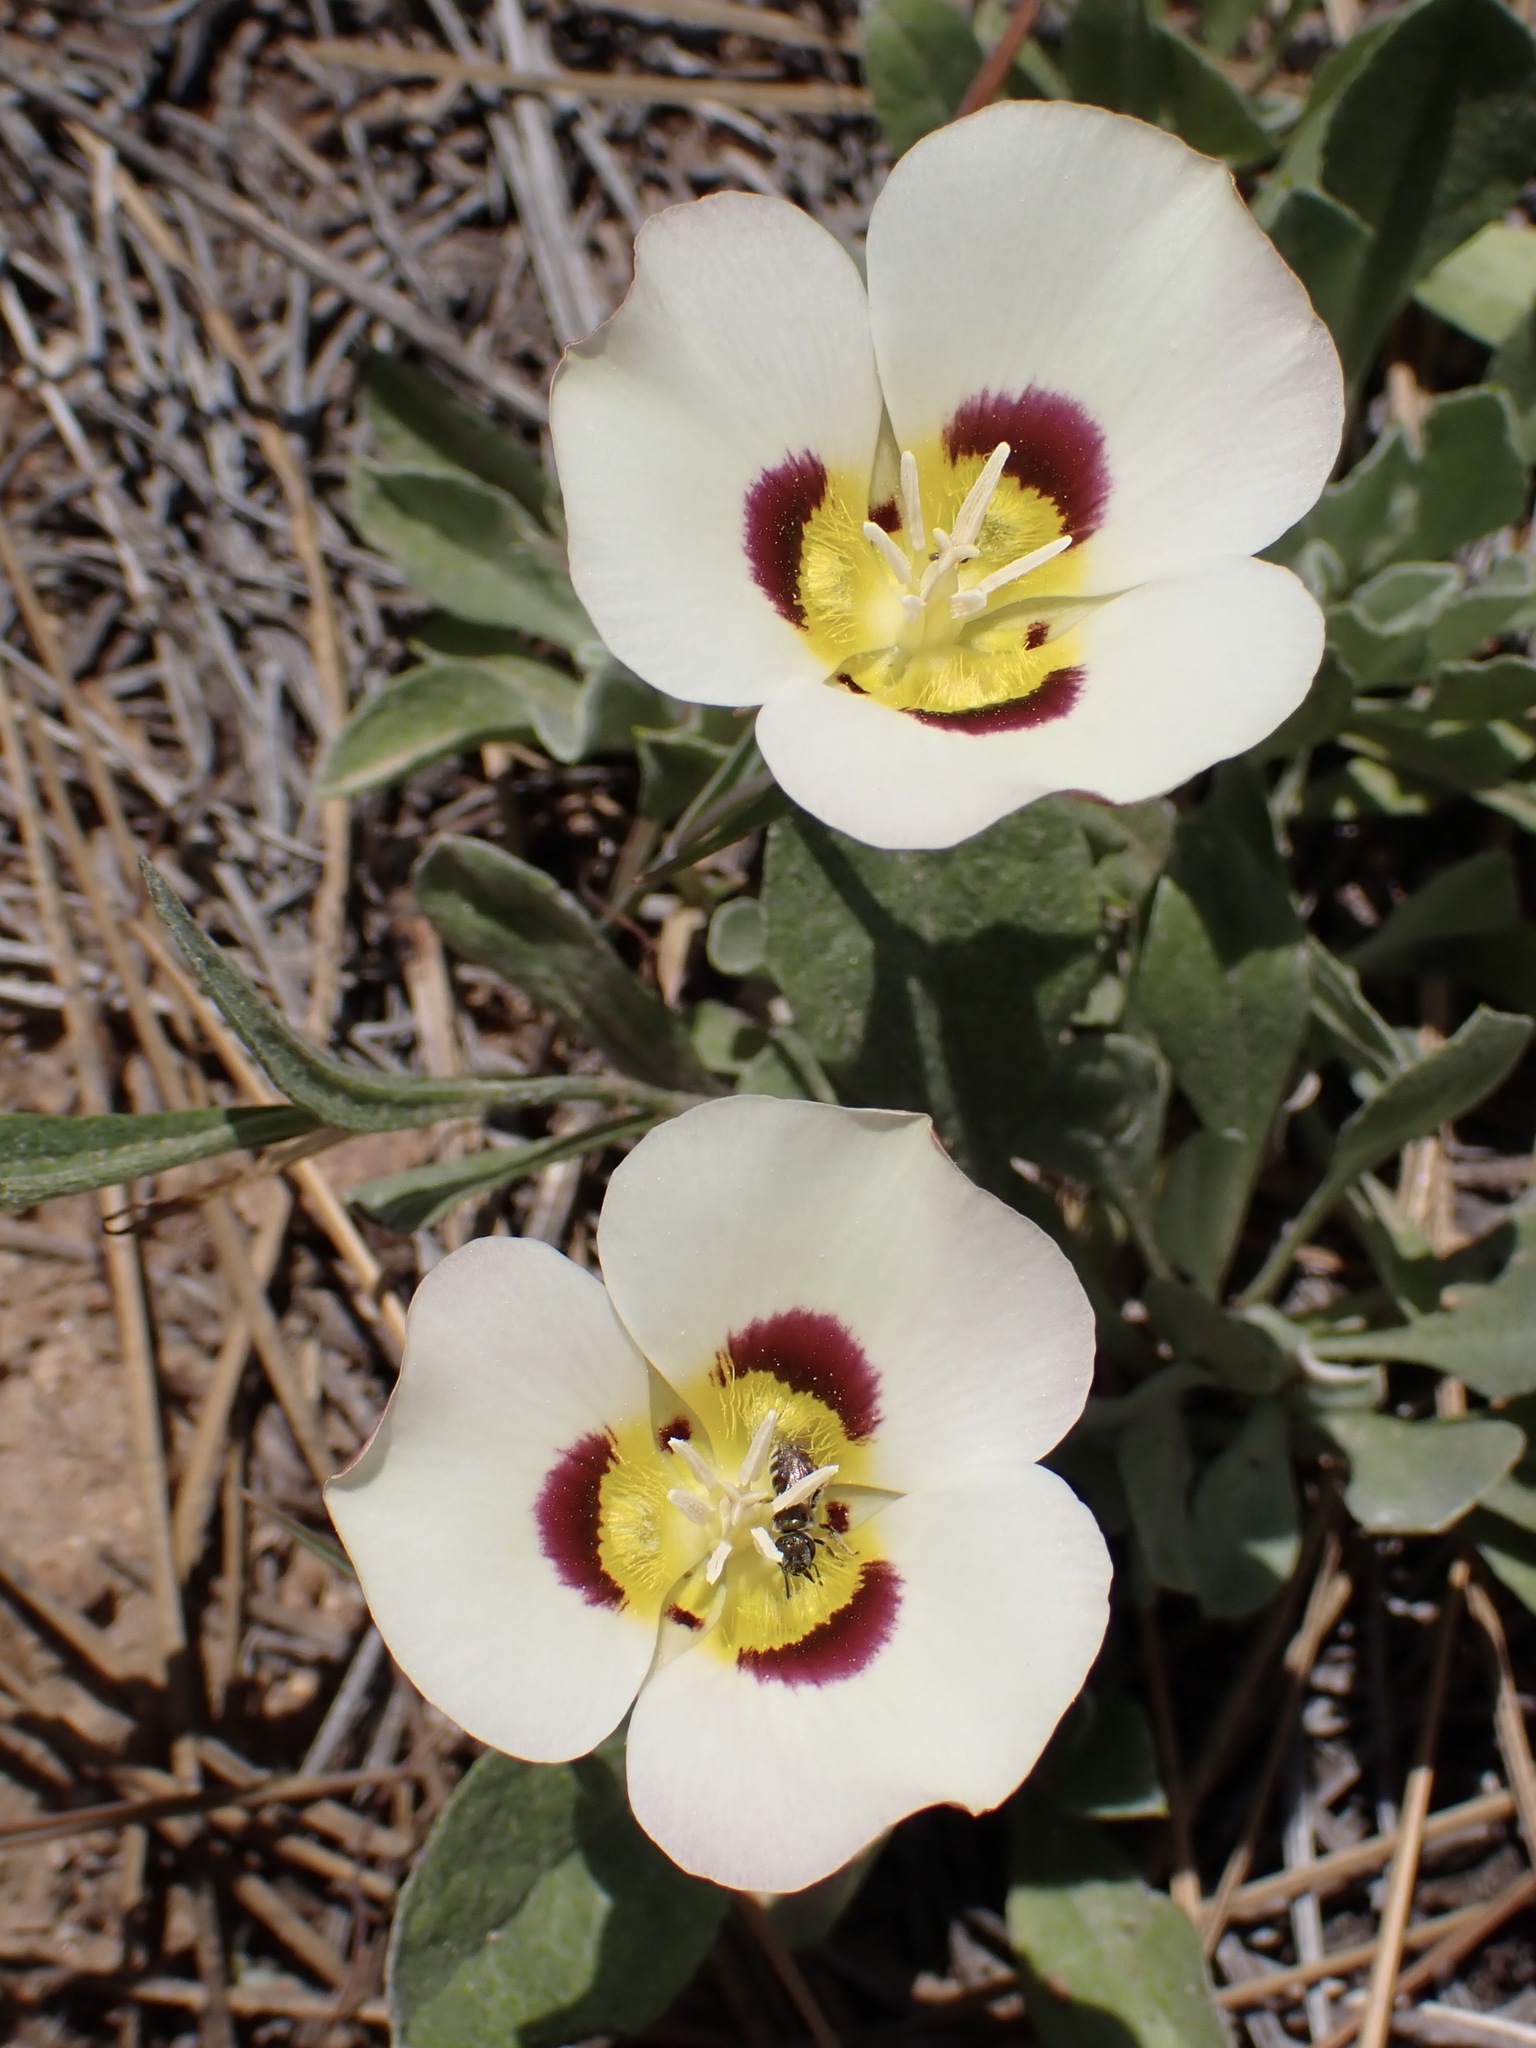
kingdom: Plantae
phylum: Tracheophyta
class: Liliopsida
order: Liliales
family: Liliaceae
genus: Calochortus
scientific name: Calochortus leichtlinii
